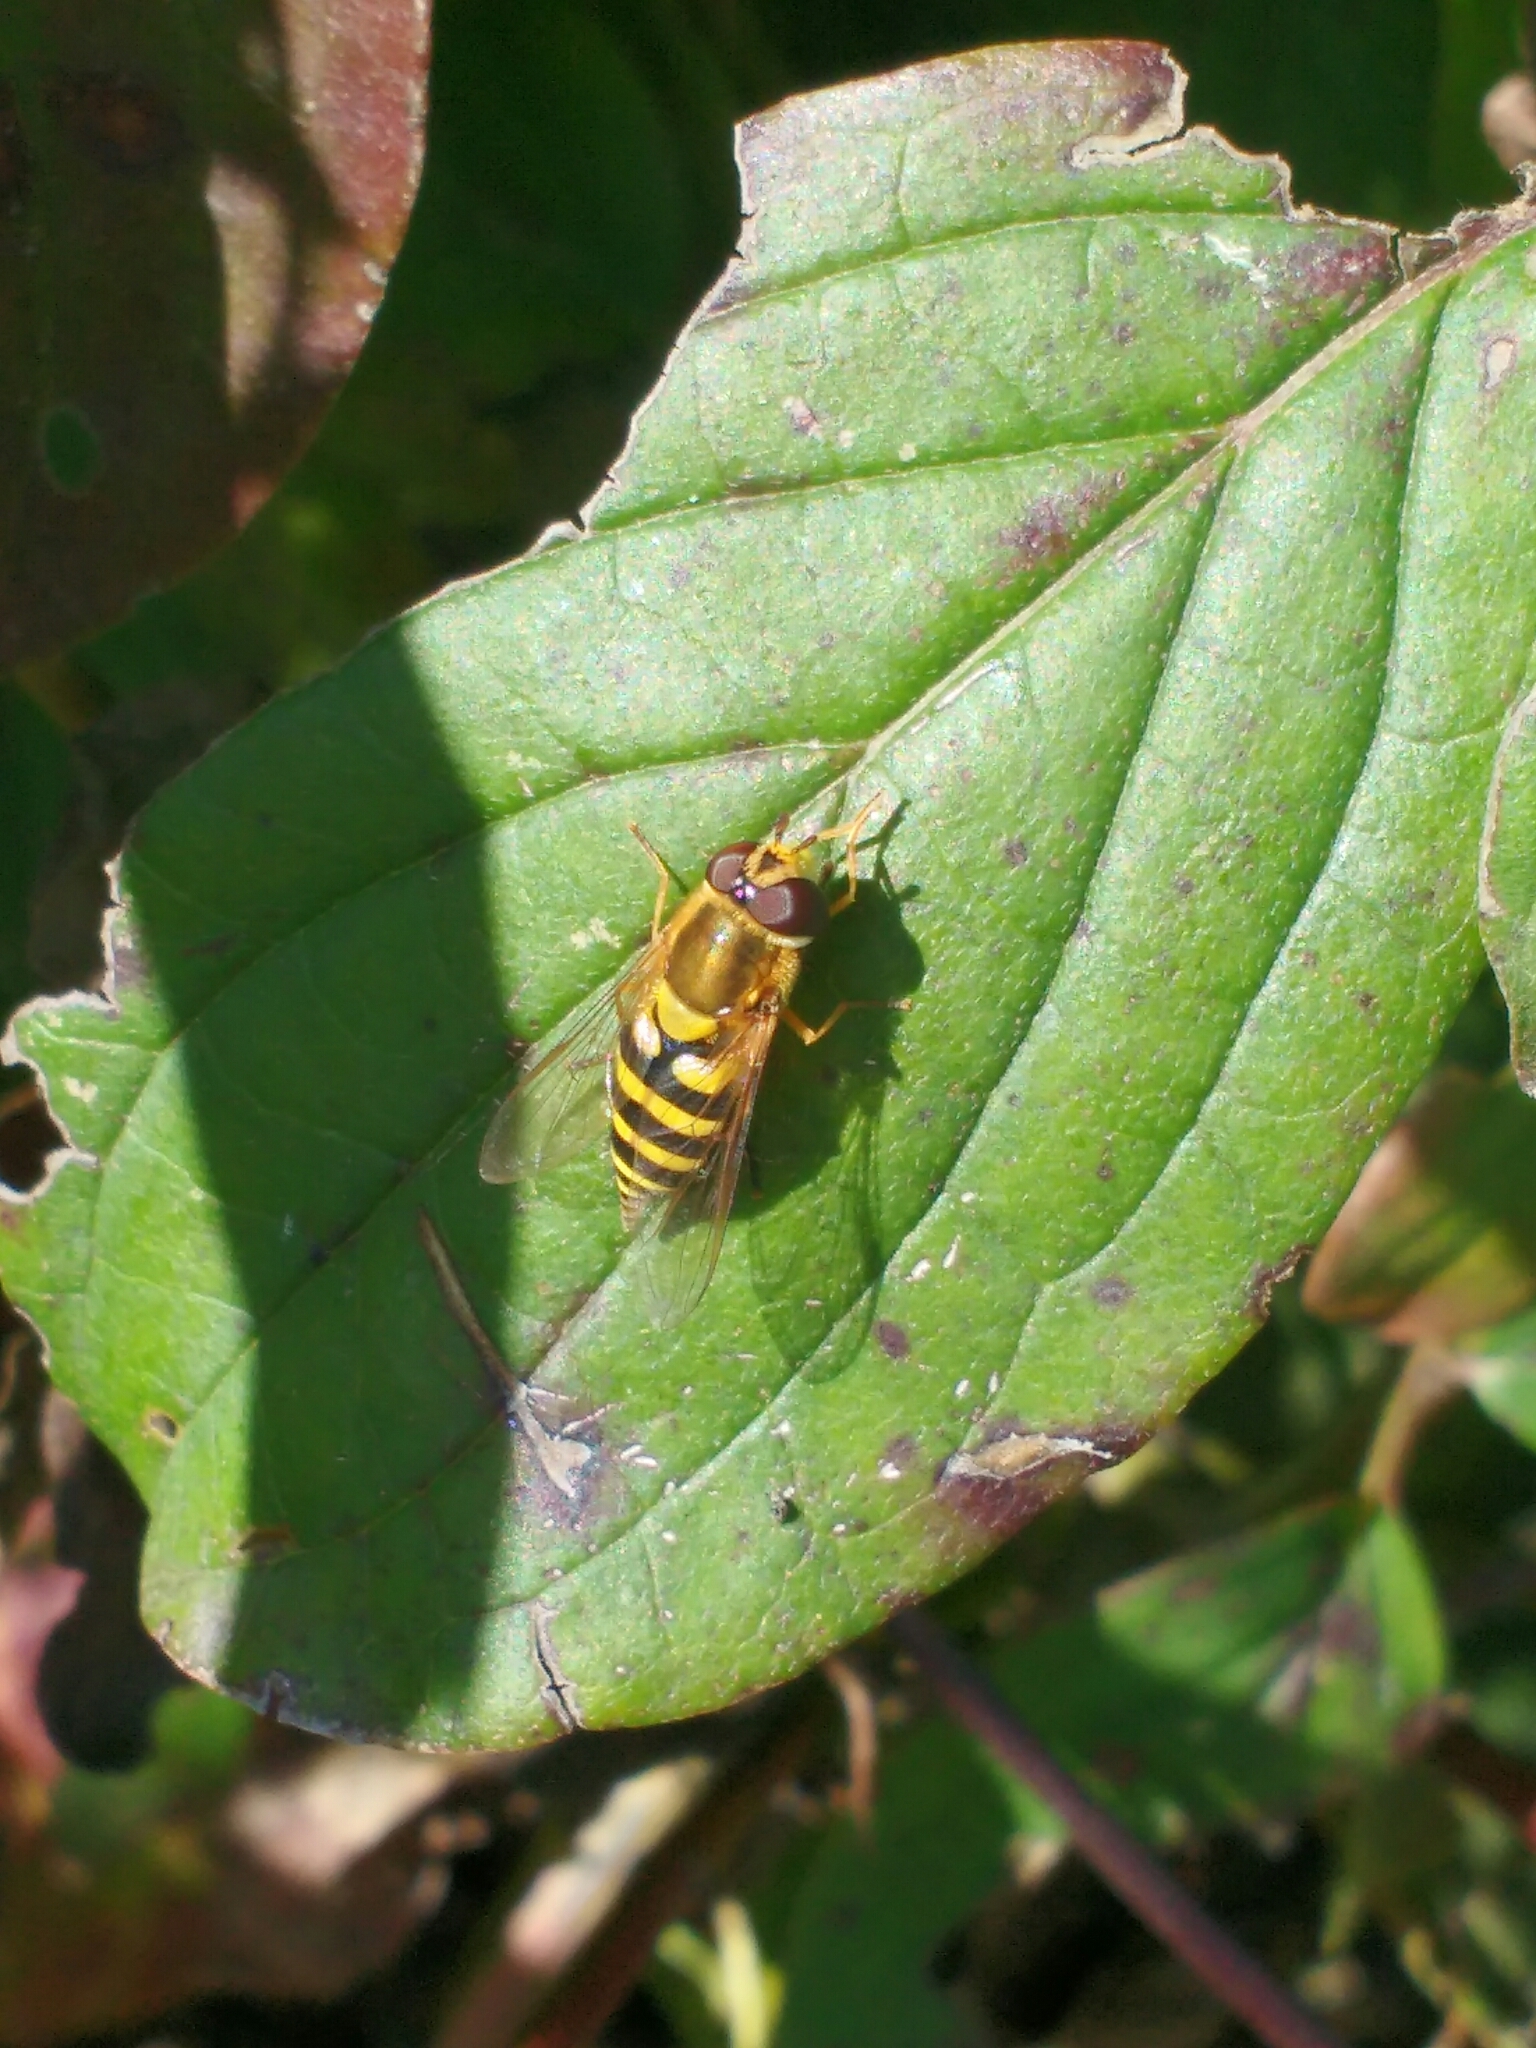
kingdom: Animalia
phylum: Arthropoda
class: Insecta
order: Diptera
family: Syrphidae
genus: Syrphus
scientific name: Syrphus
